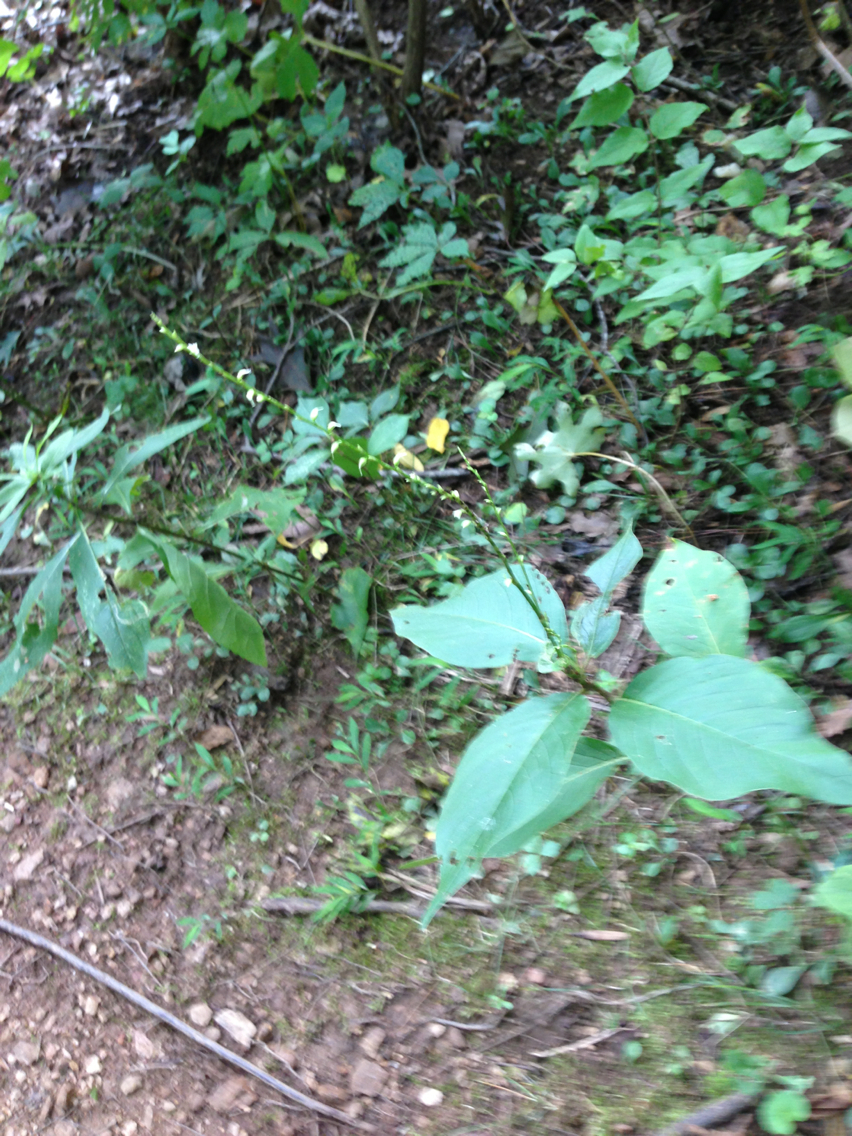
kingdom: Plantae
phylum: Tracheophyta
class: Magnoliopsida
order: Caryophyllales
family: Polygonaceae
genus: Persicaria
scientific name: Persicaria virginiana
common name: Jumpseed
